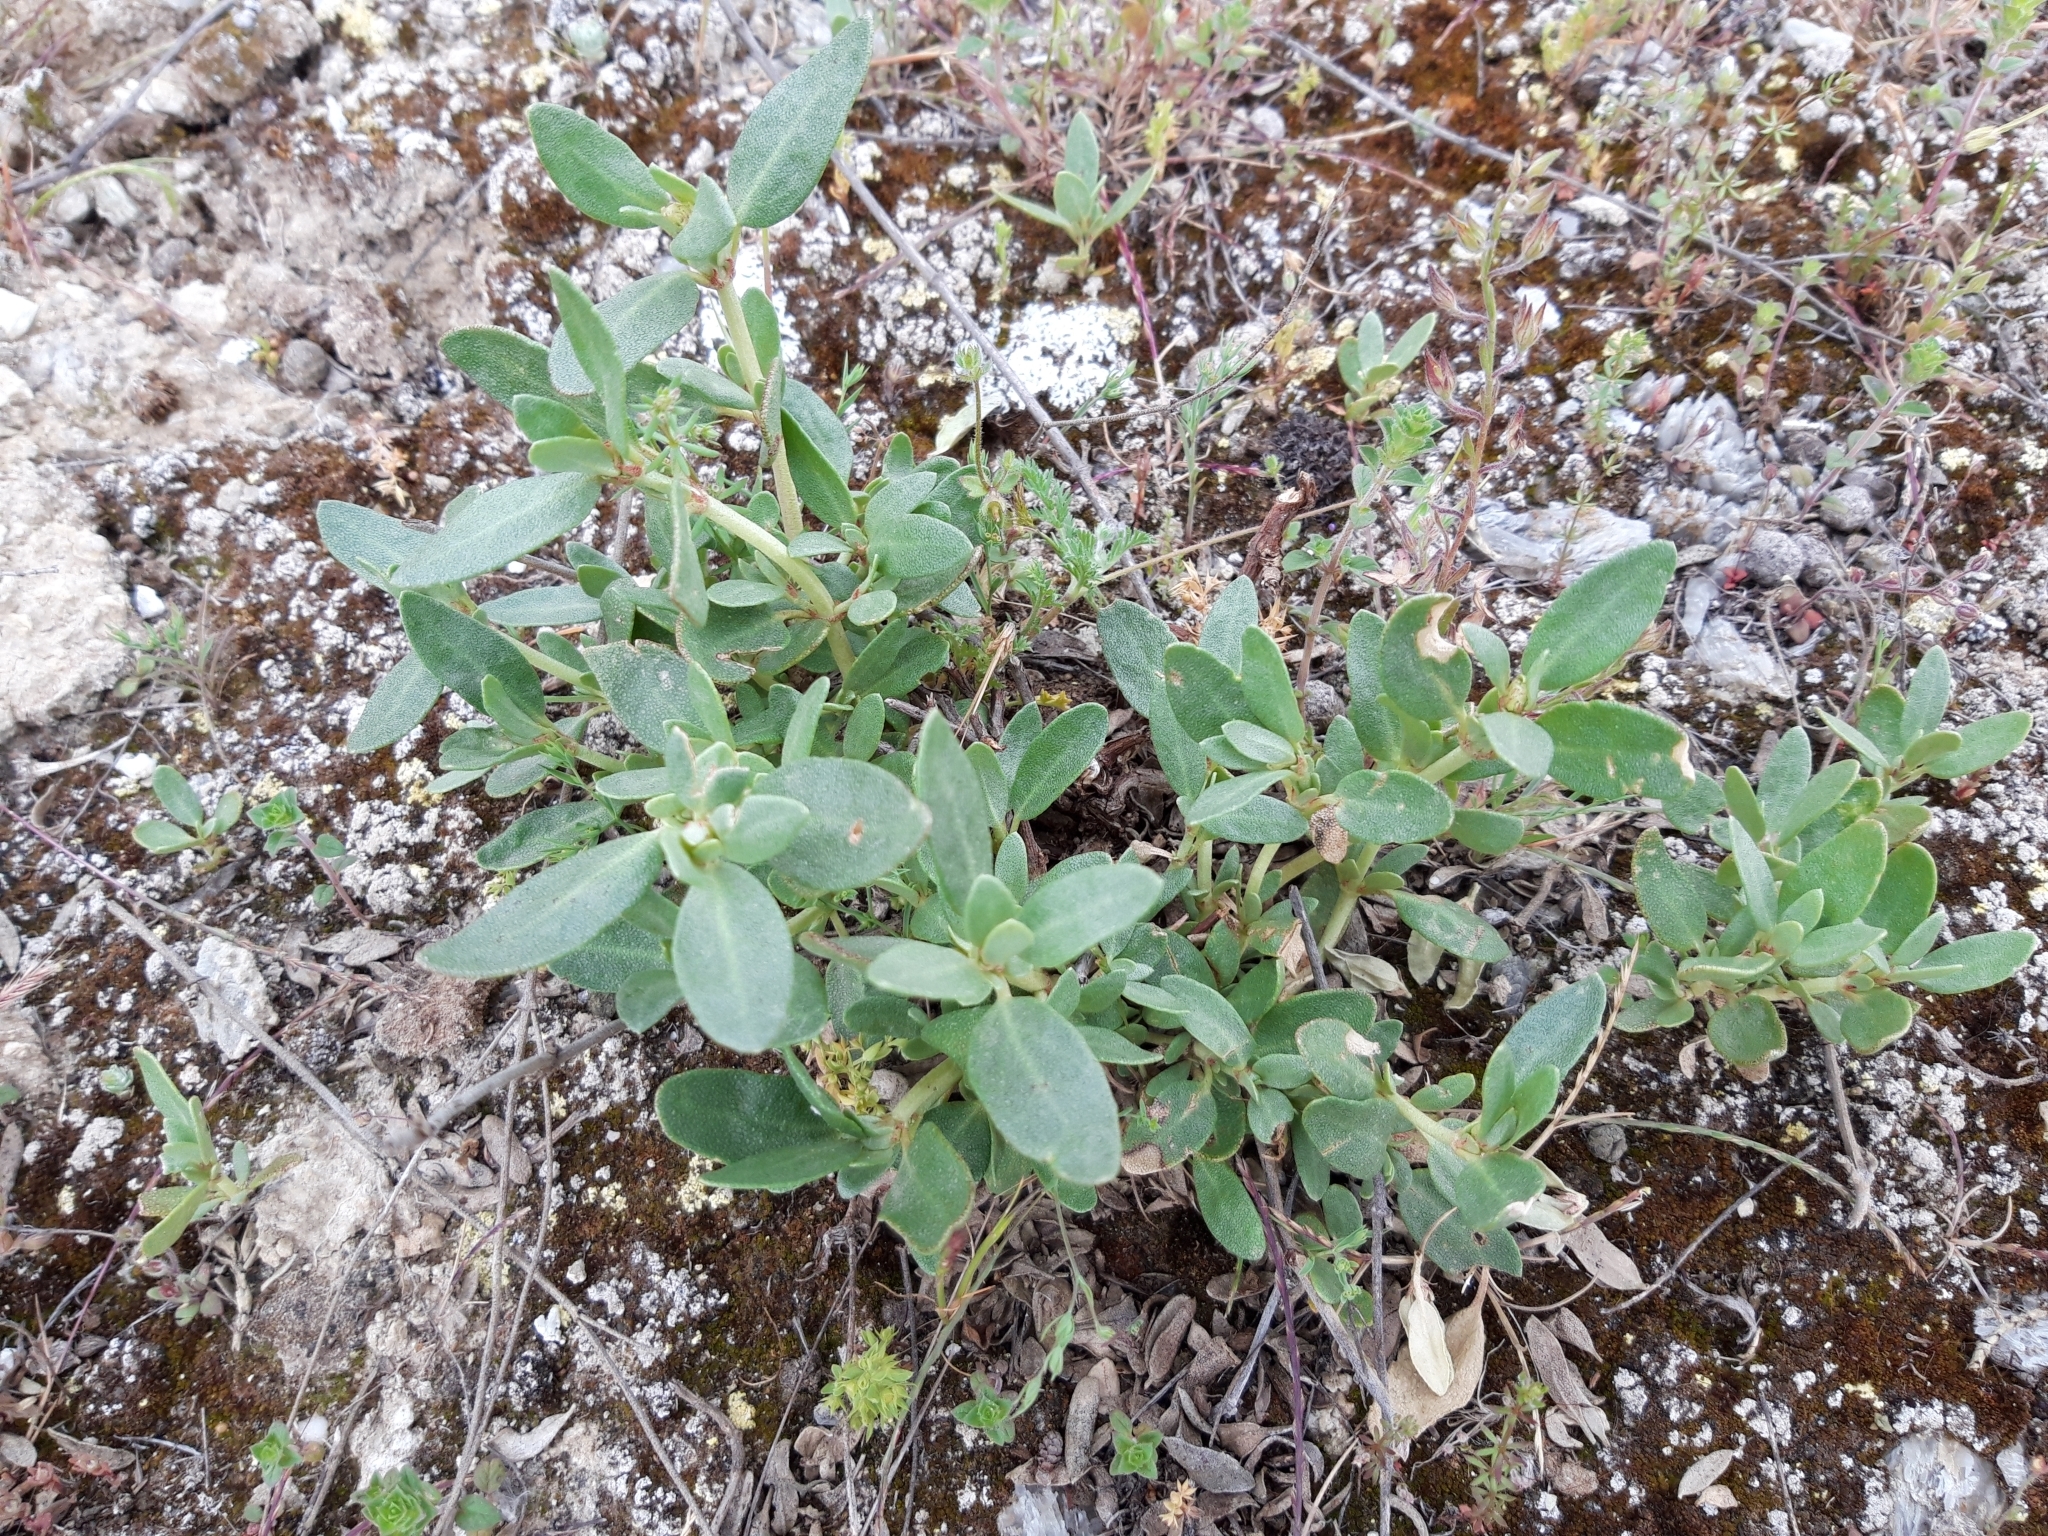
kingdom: Plantae
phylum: Tracheophyta
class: Magnoliopsida
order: Malvales
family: Cistaceae
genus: Helianthemum
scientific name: Helianthemum squamatum
